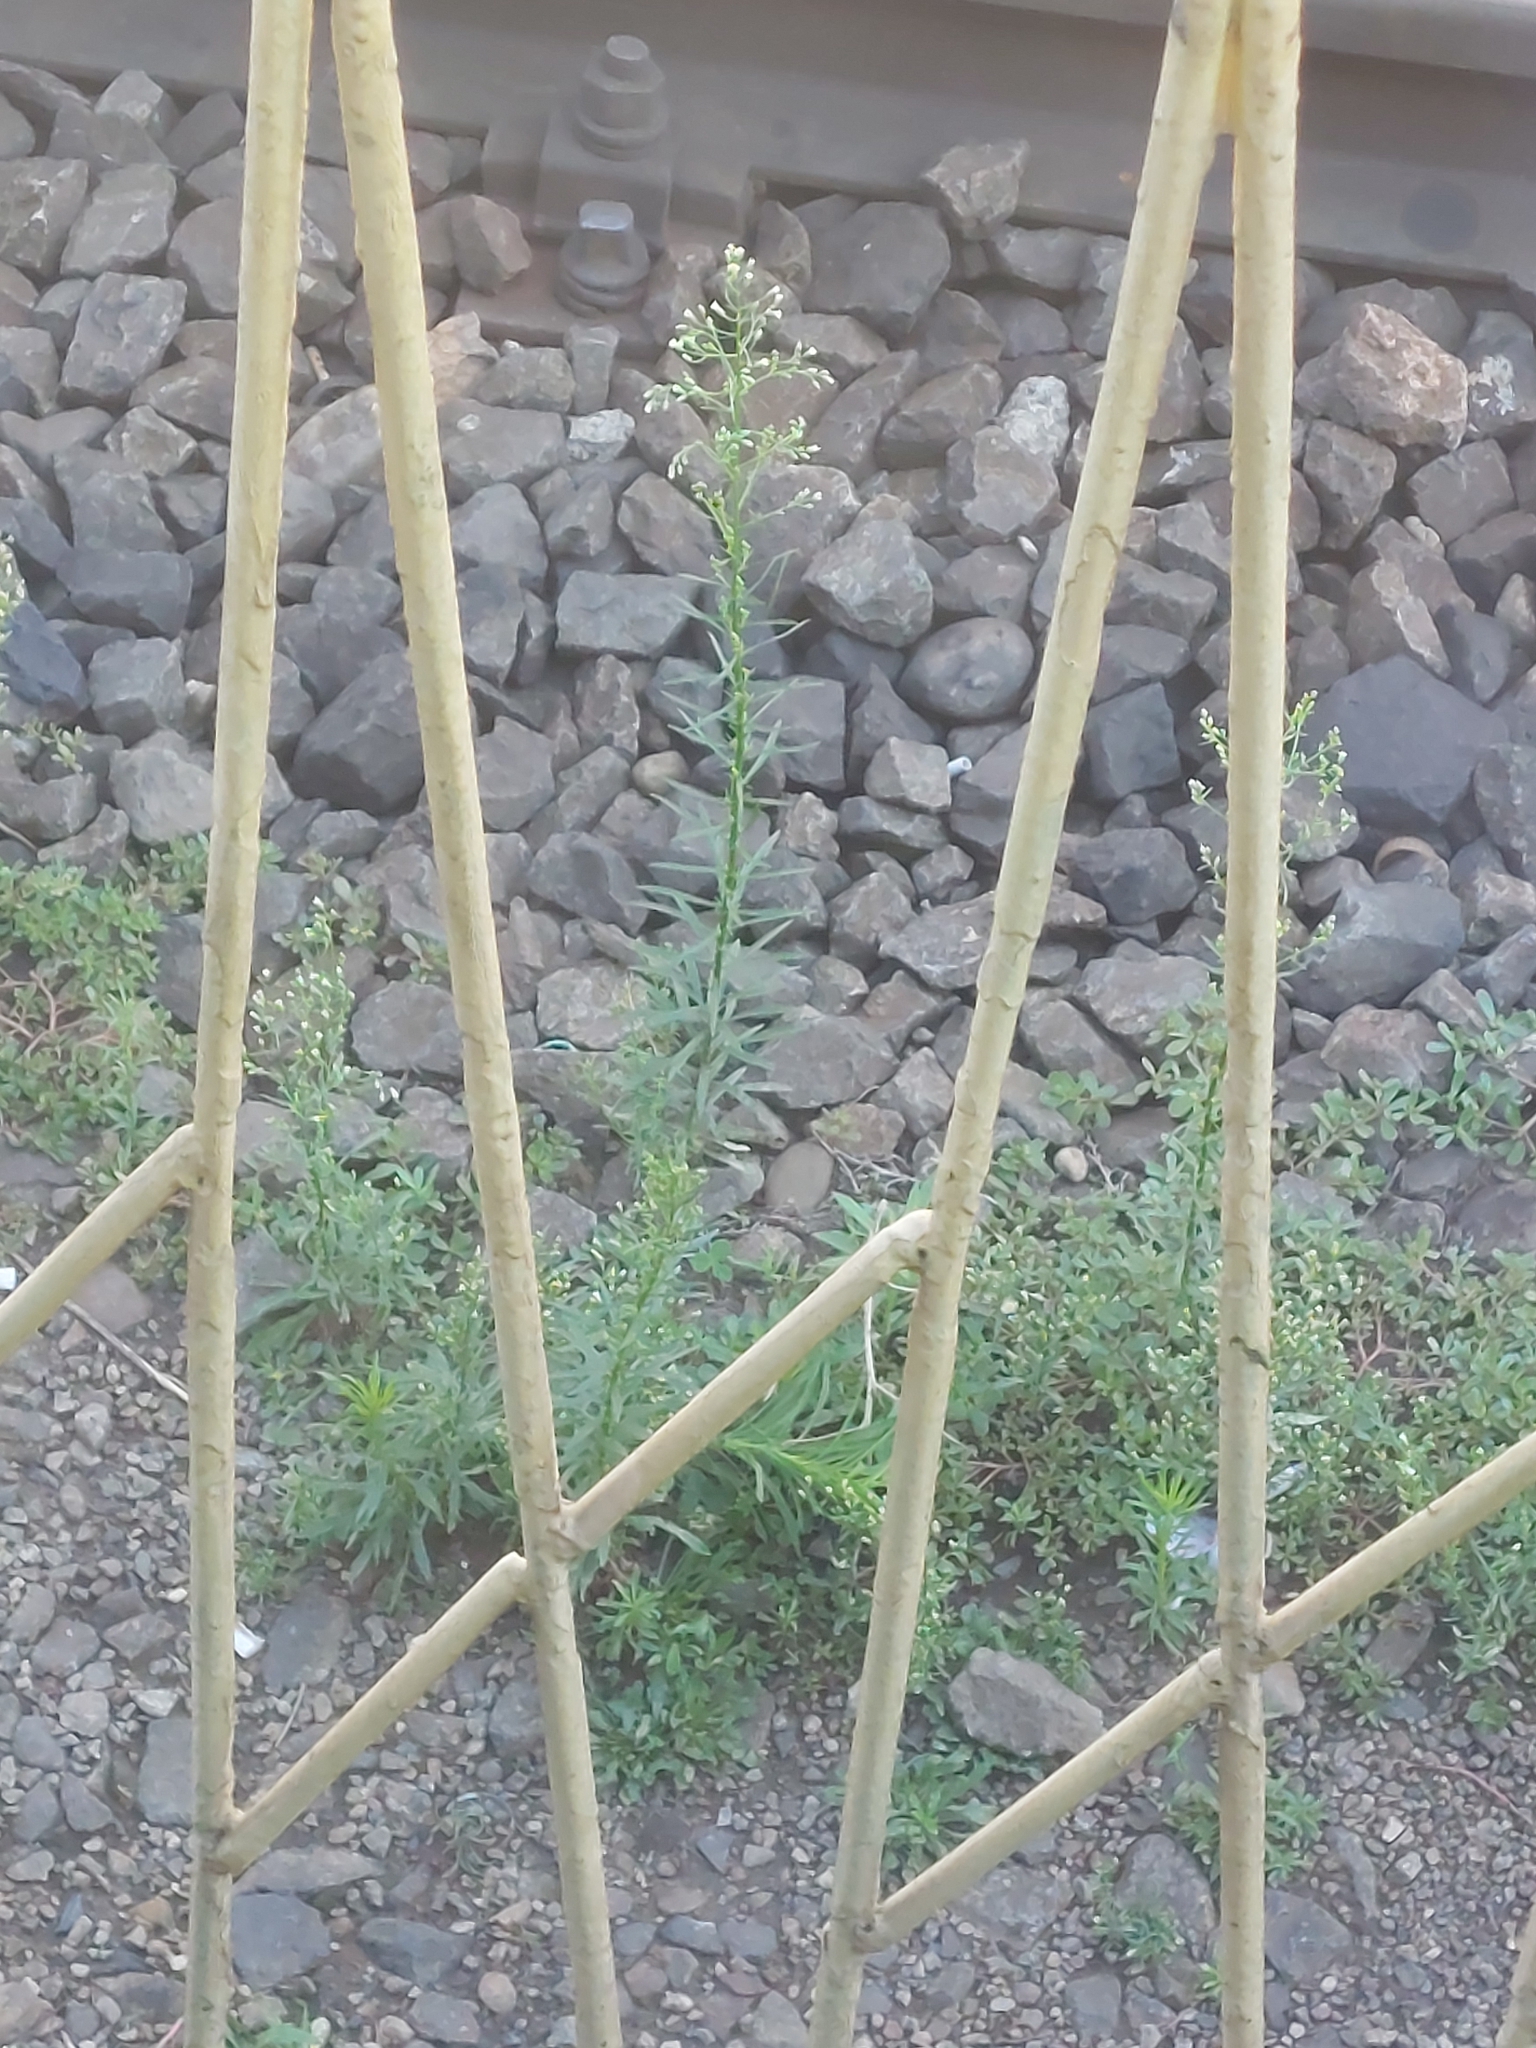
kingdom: Plantae
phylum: Tracheophyta
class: Magnoliopsida
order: Asterales
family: Asteraceae
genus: Erigeron
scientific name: Erigeron canadensis
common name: Canadian fleabane
